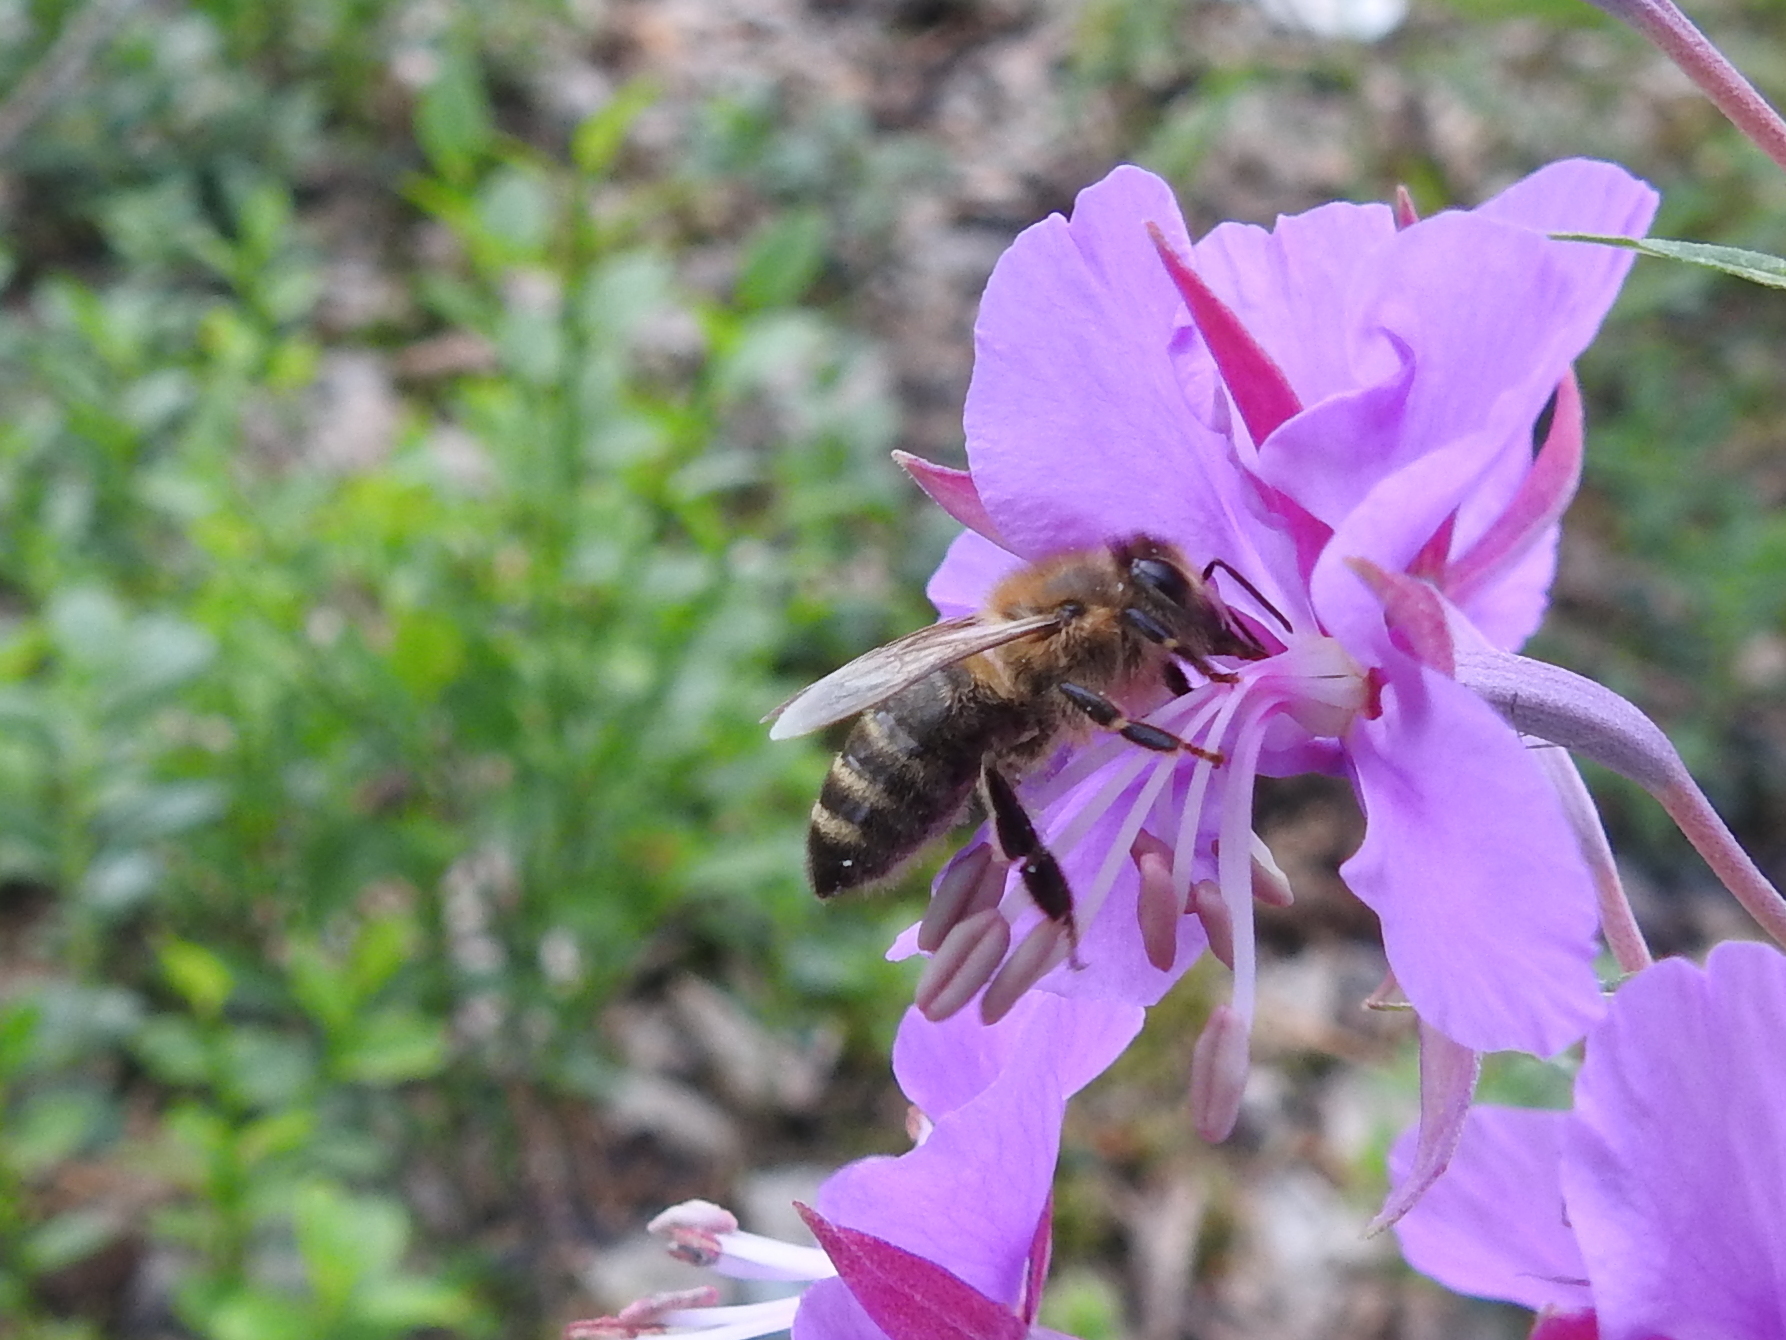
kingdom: Animalia
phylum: Arthropoda
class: Insecta
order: Hymenoptera
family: Apidae
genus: Apis
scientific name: Apis mellifera
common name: Honey bee
